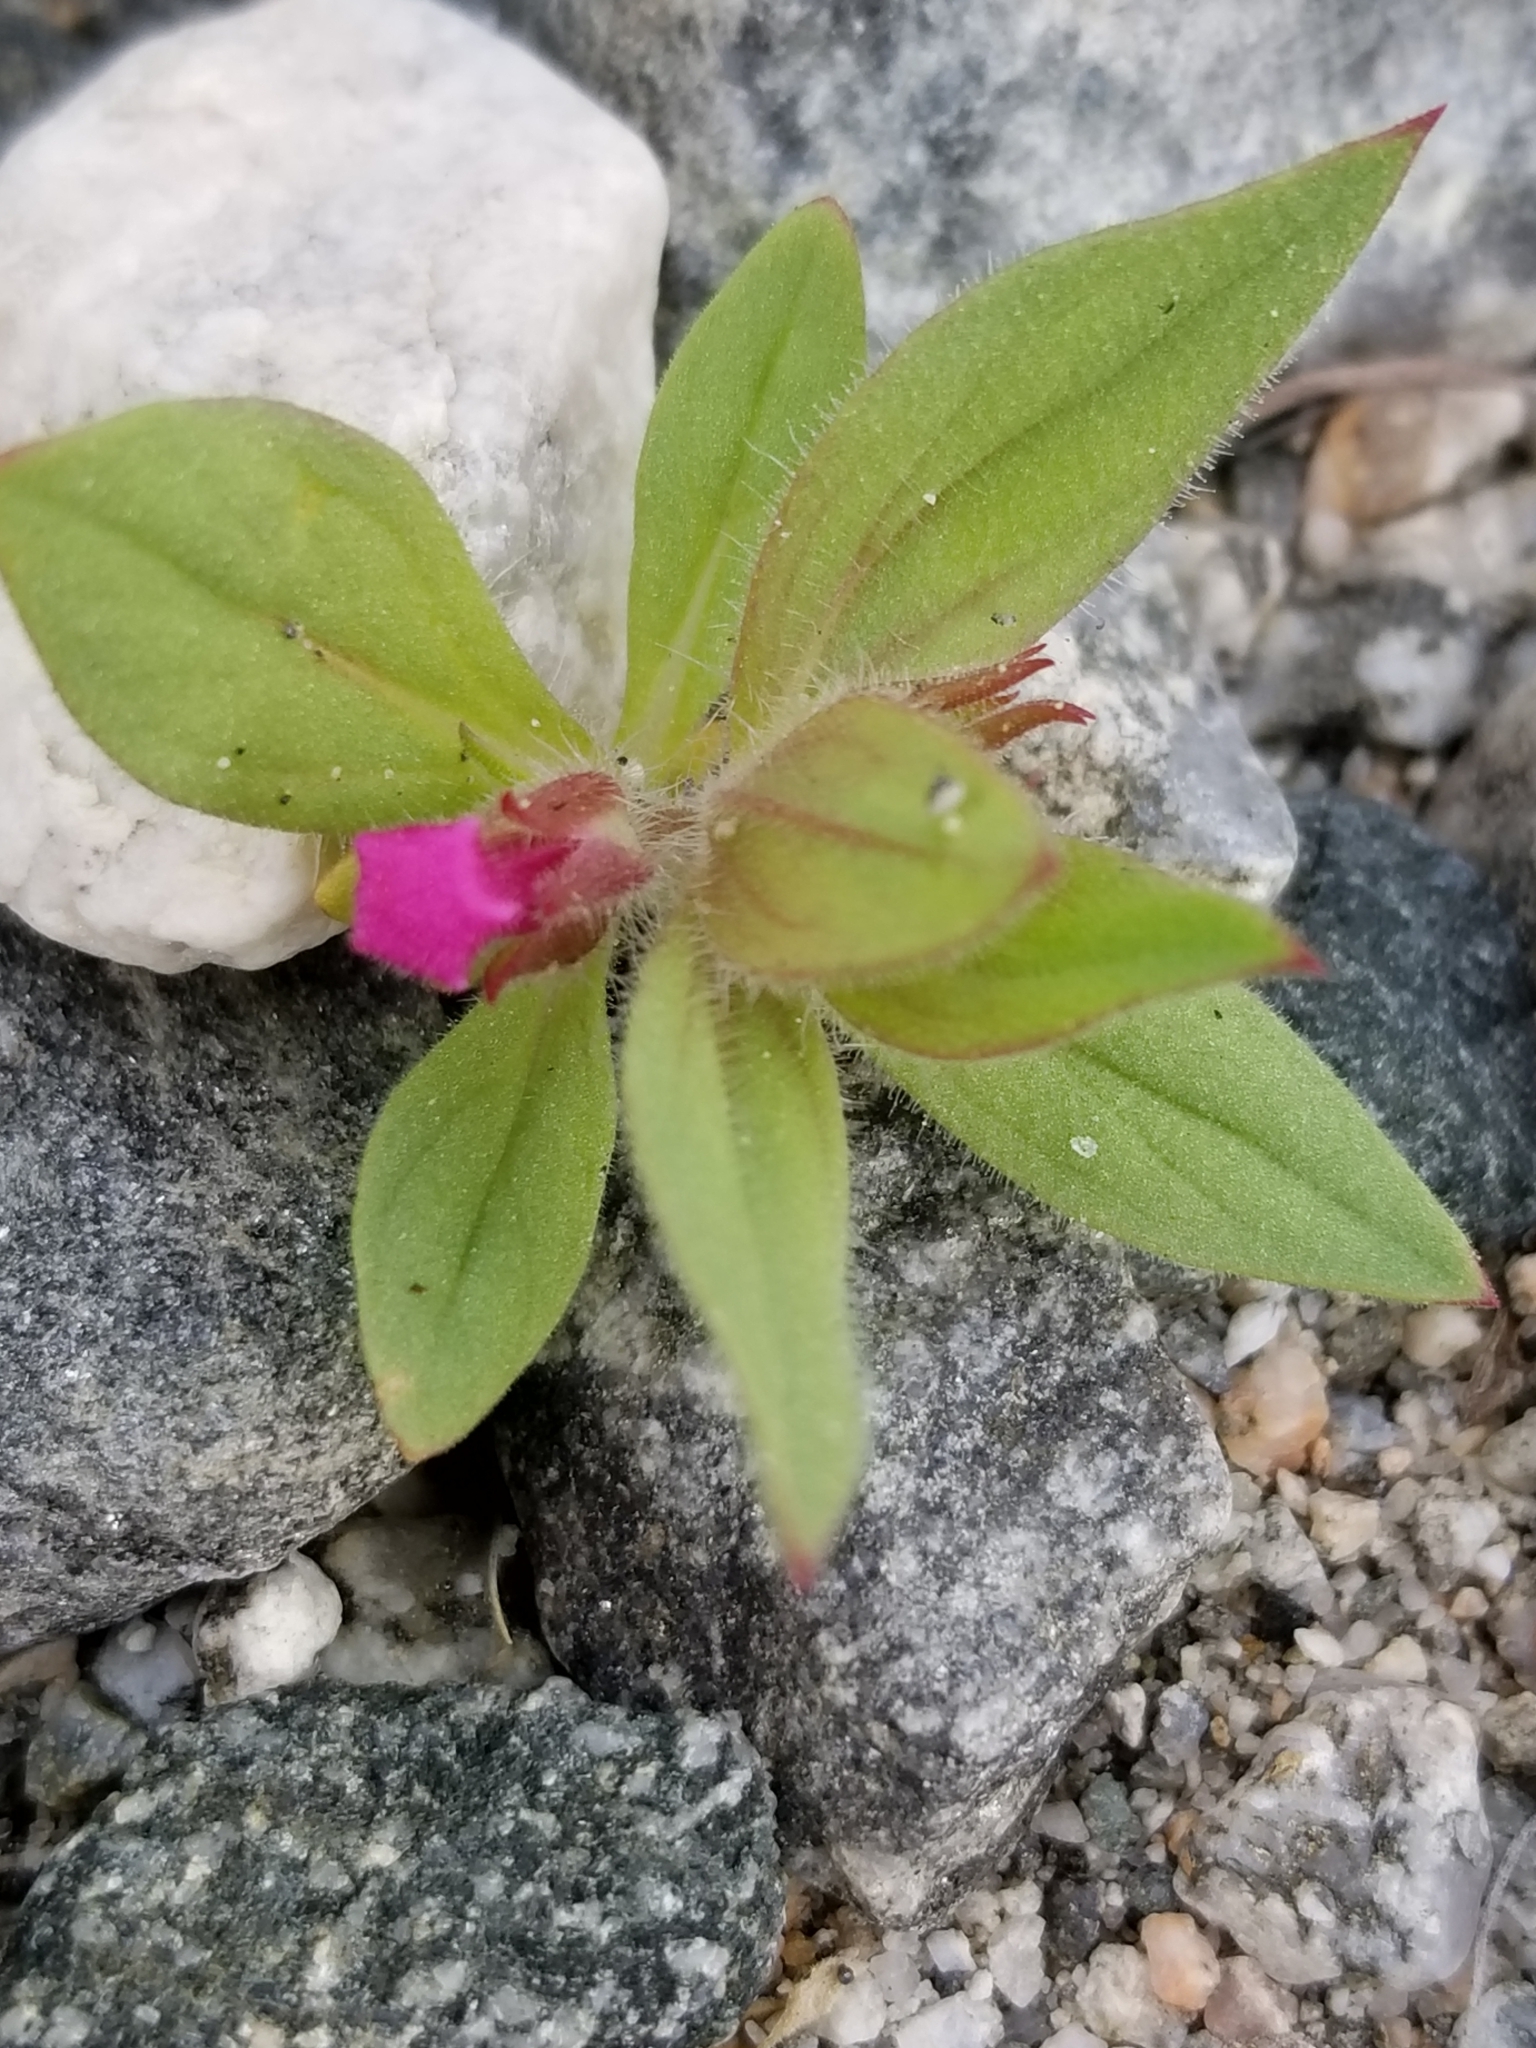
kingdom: Plantae
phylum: Tracheophyta
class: Magnoliopsida
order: Lamiales
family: Phrymaceae
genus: Diplacus
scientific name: Diplacus bigelovii
